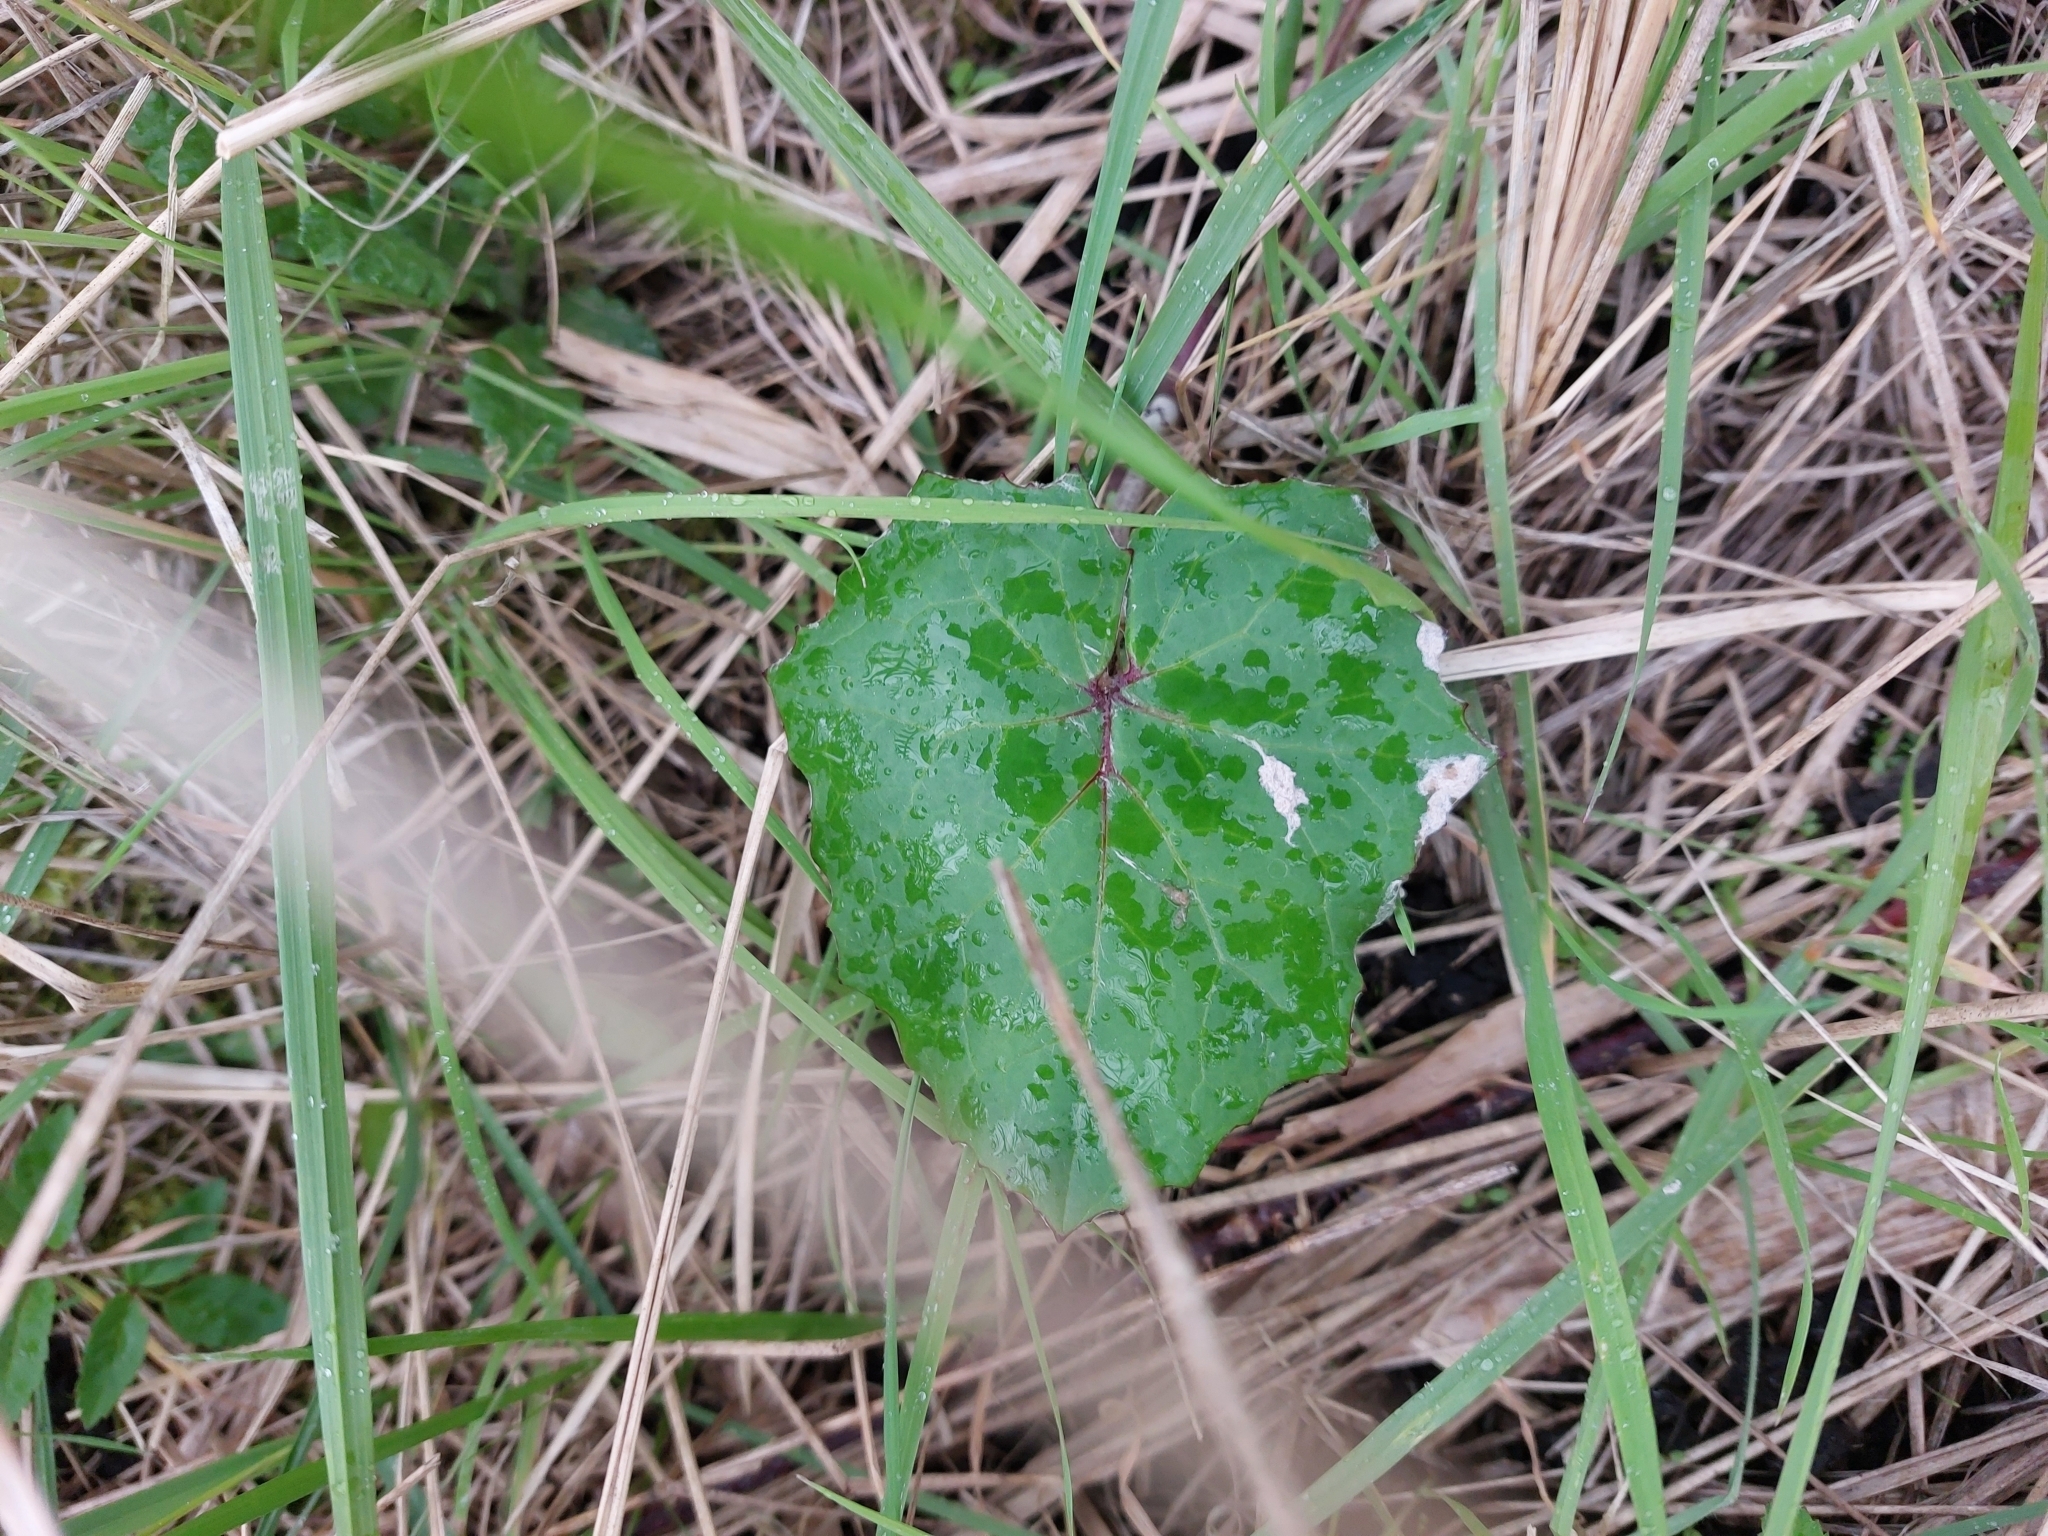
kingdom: Plantae
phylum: Tracheophyta
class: Magnoliopsida
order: Asterales
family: Asteraceae
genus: Tussilago
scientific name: Tussilago farfara
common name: Coltsfoot
